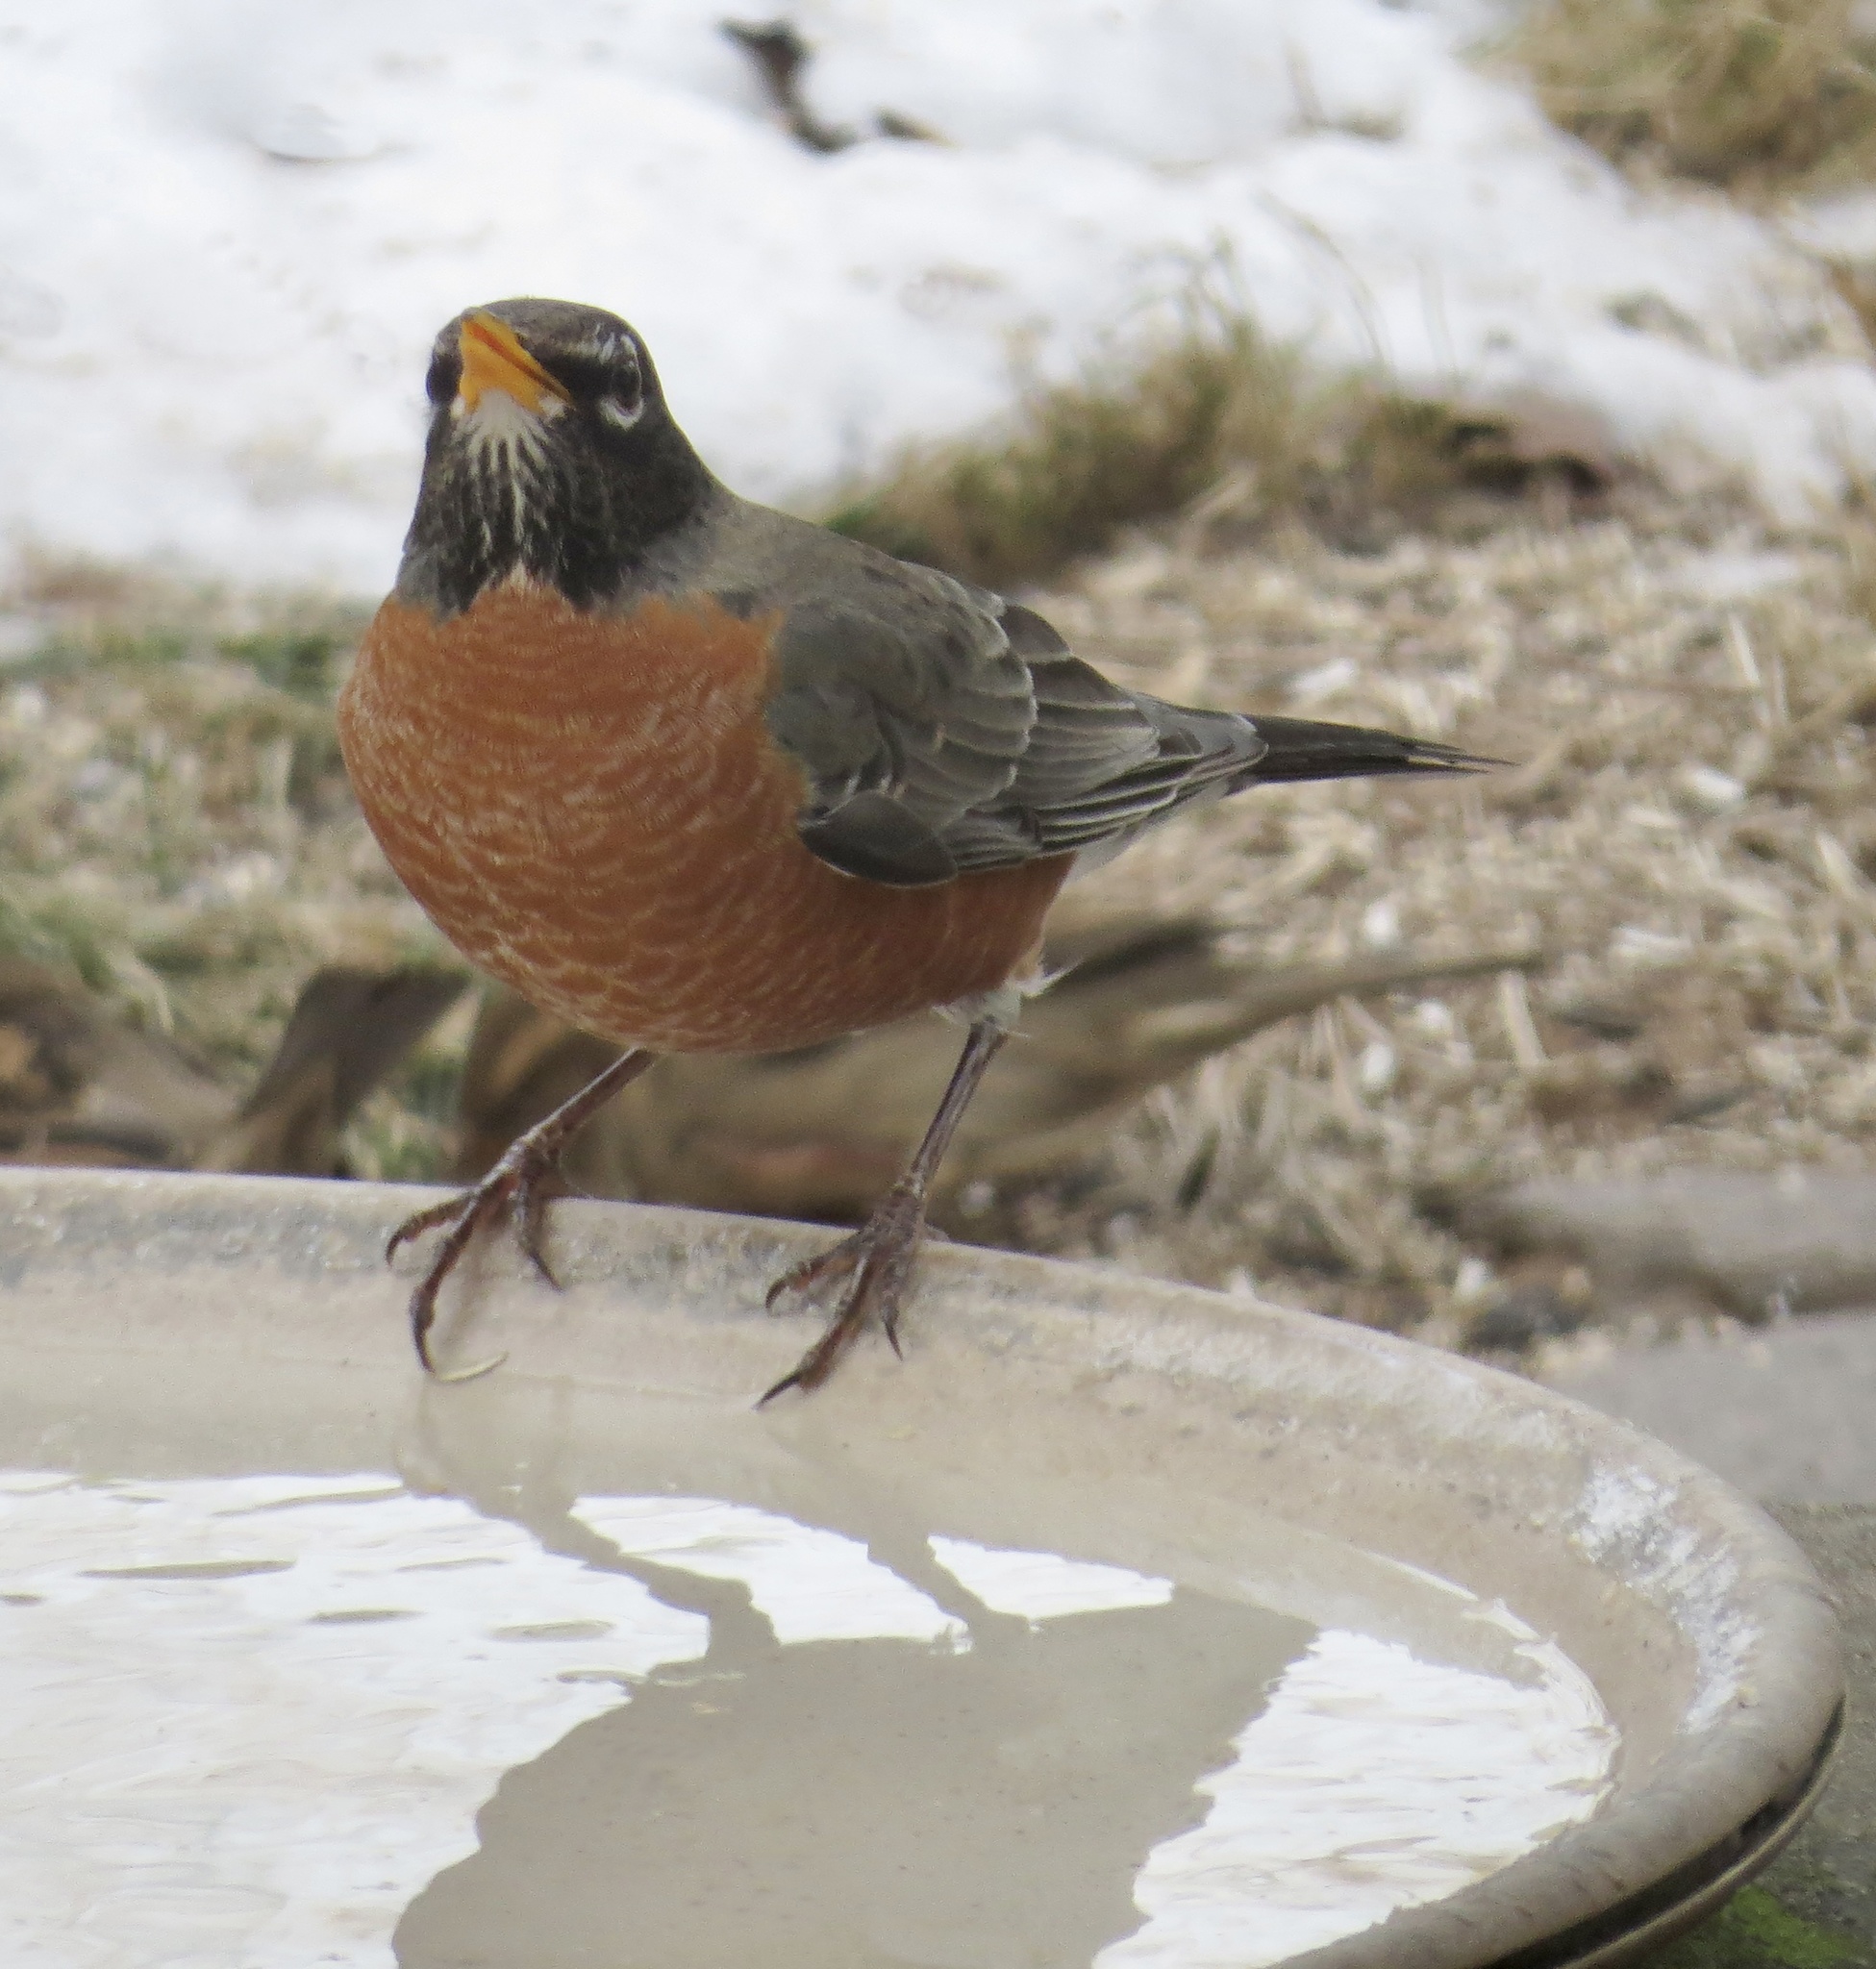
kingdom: Animalia
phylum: Chordata
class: Aves
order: Passeriformes
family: Turdidae
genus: Turdus
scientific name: Turdus migratorius
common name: American robin
